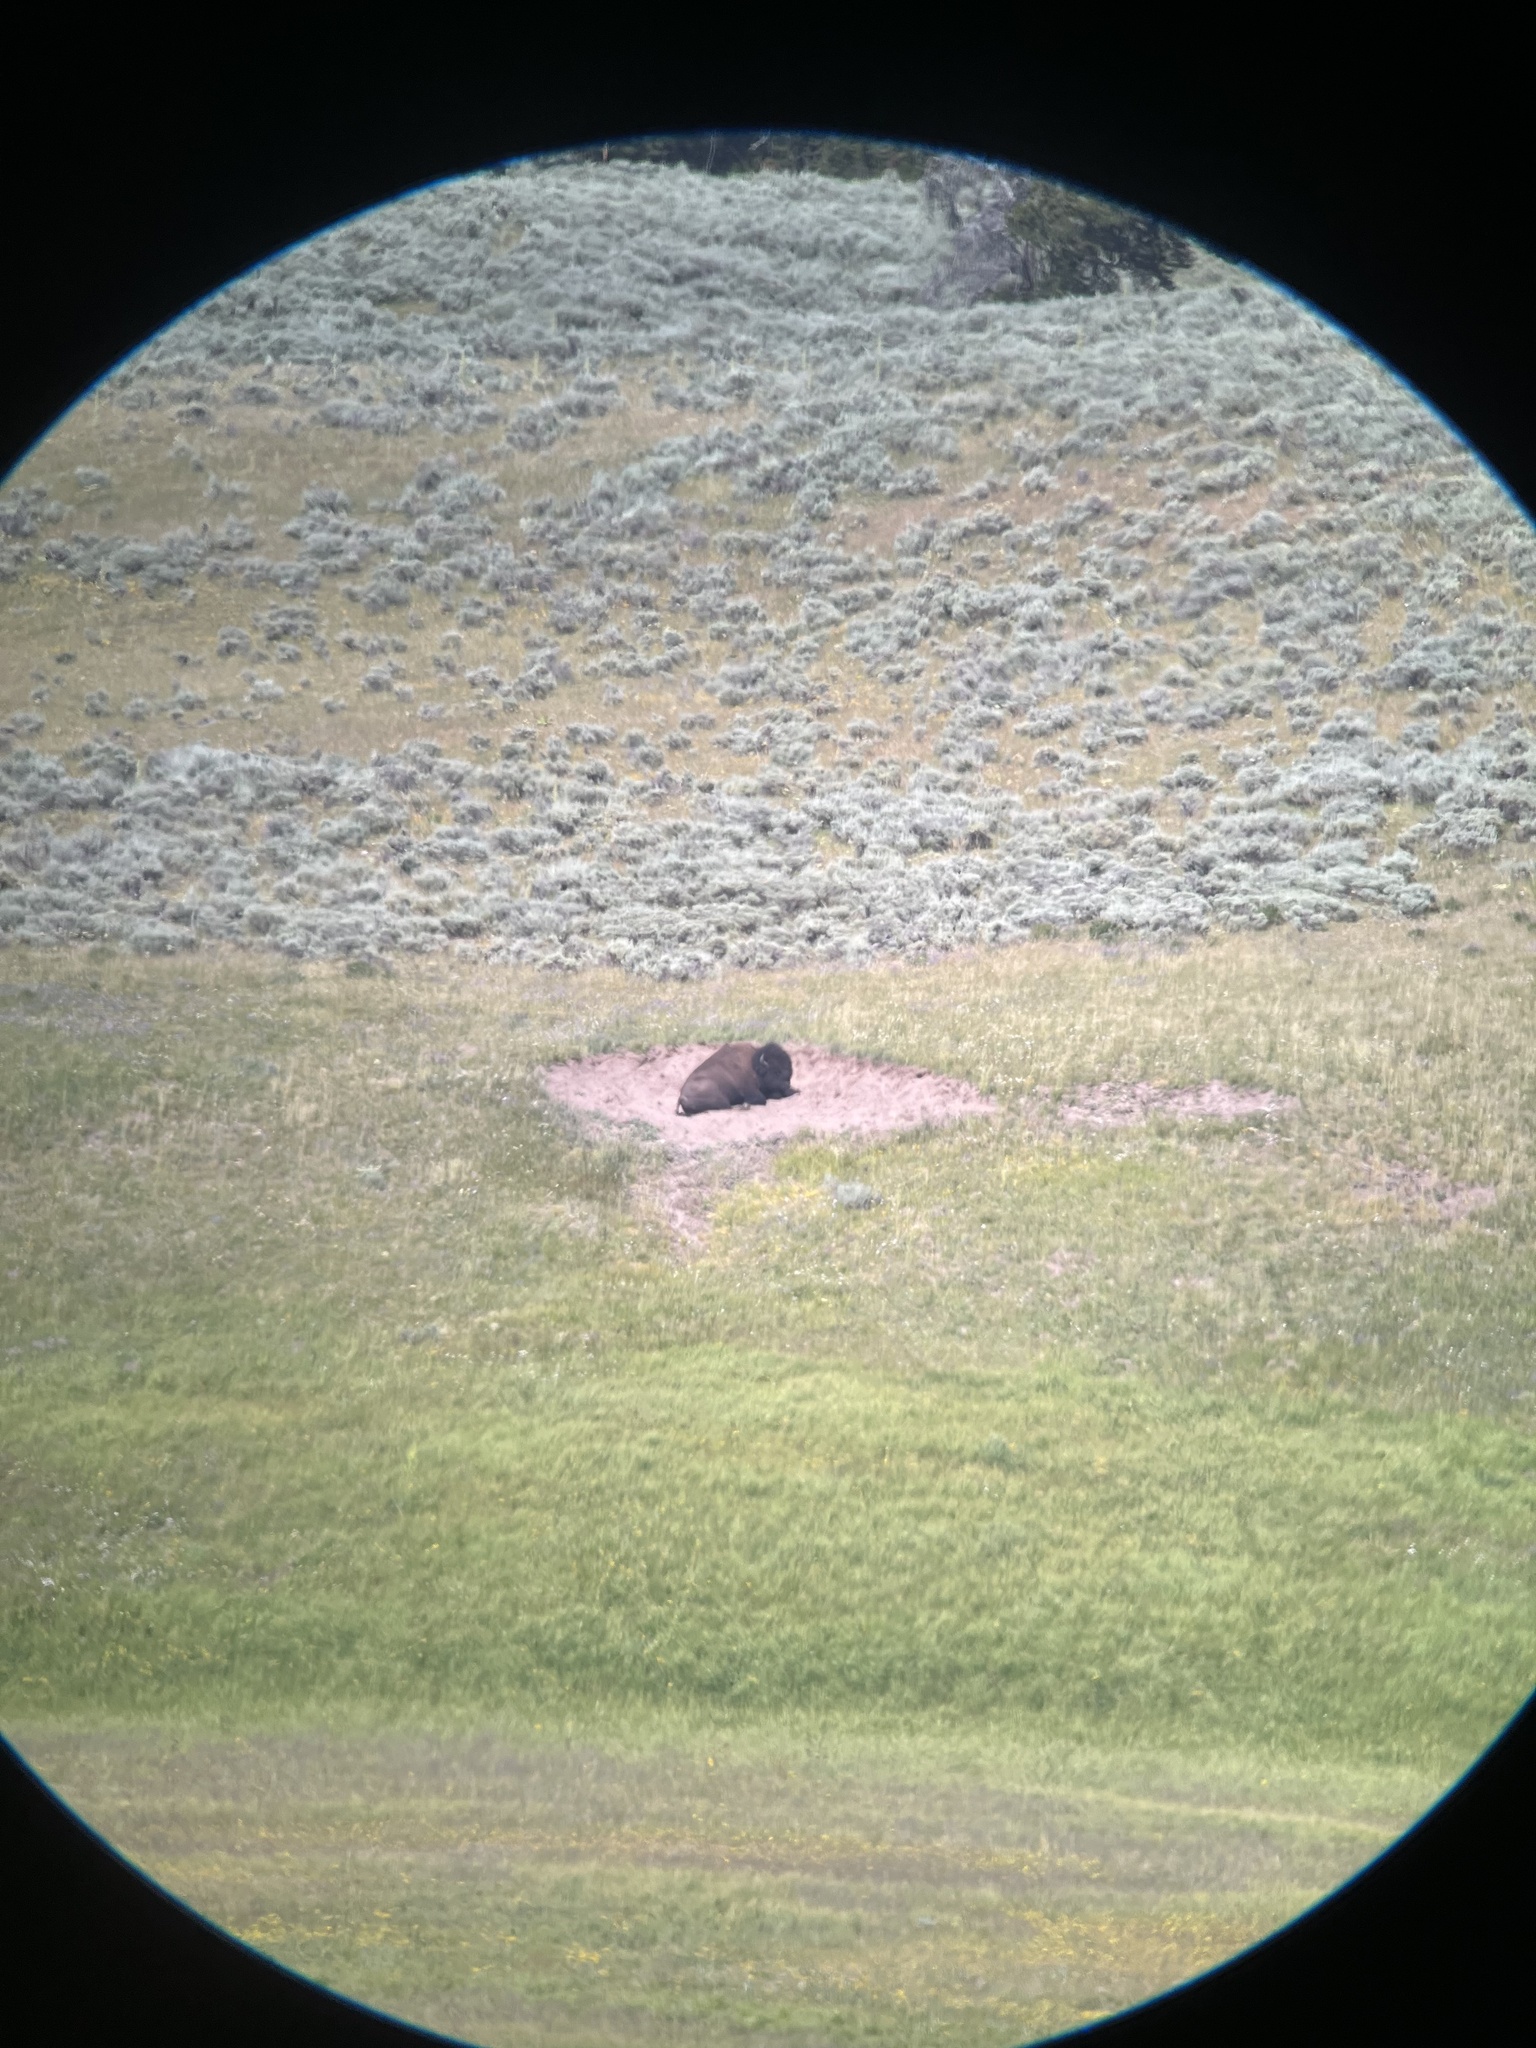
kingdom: Animalia
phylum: Chordata
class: Mammalia
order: Artiodactyla
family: Bovidae
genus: Bison
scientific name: Bison bison
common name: American bison
